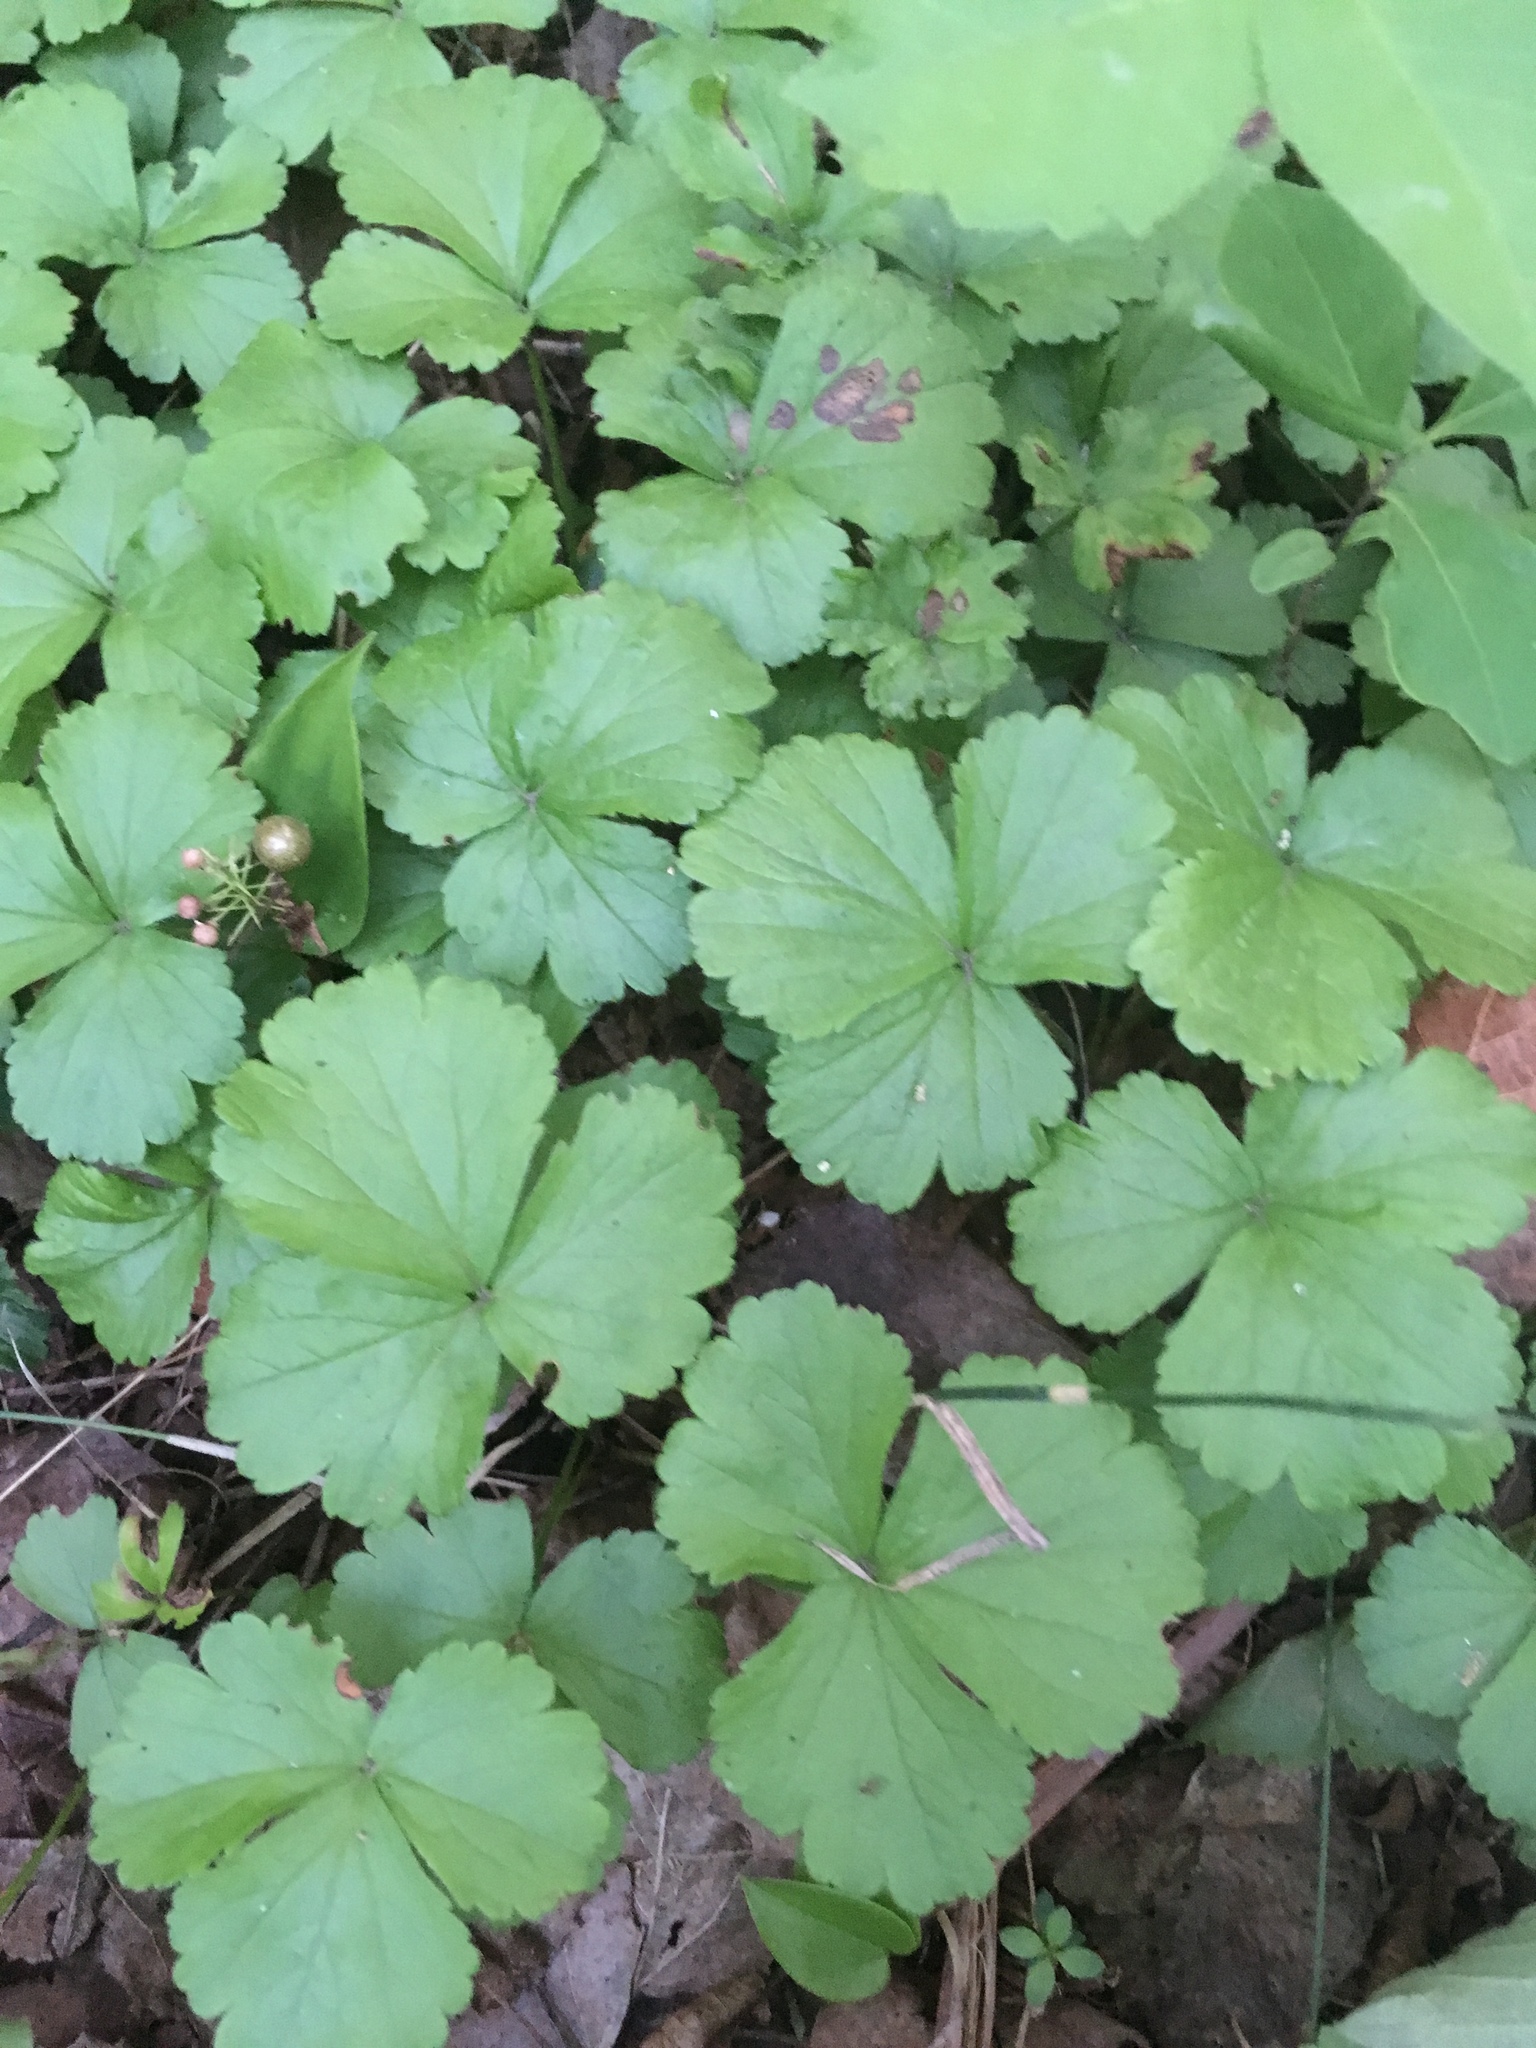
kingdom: Plantae
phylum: Tracheophyta
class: Magnoliopsida
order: Rosales
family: Rosaceae
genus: Geum
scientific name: Geum fragarioides
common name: Appalachian barren strawberry
